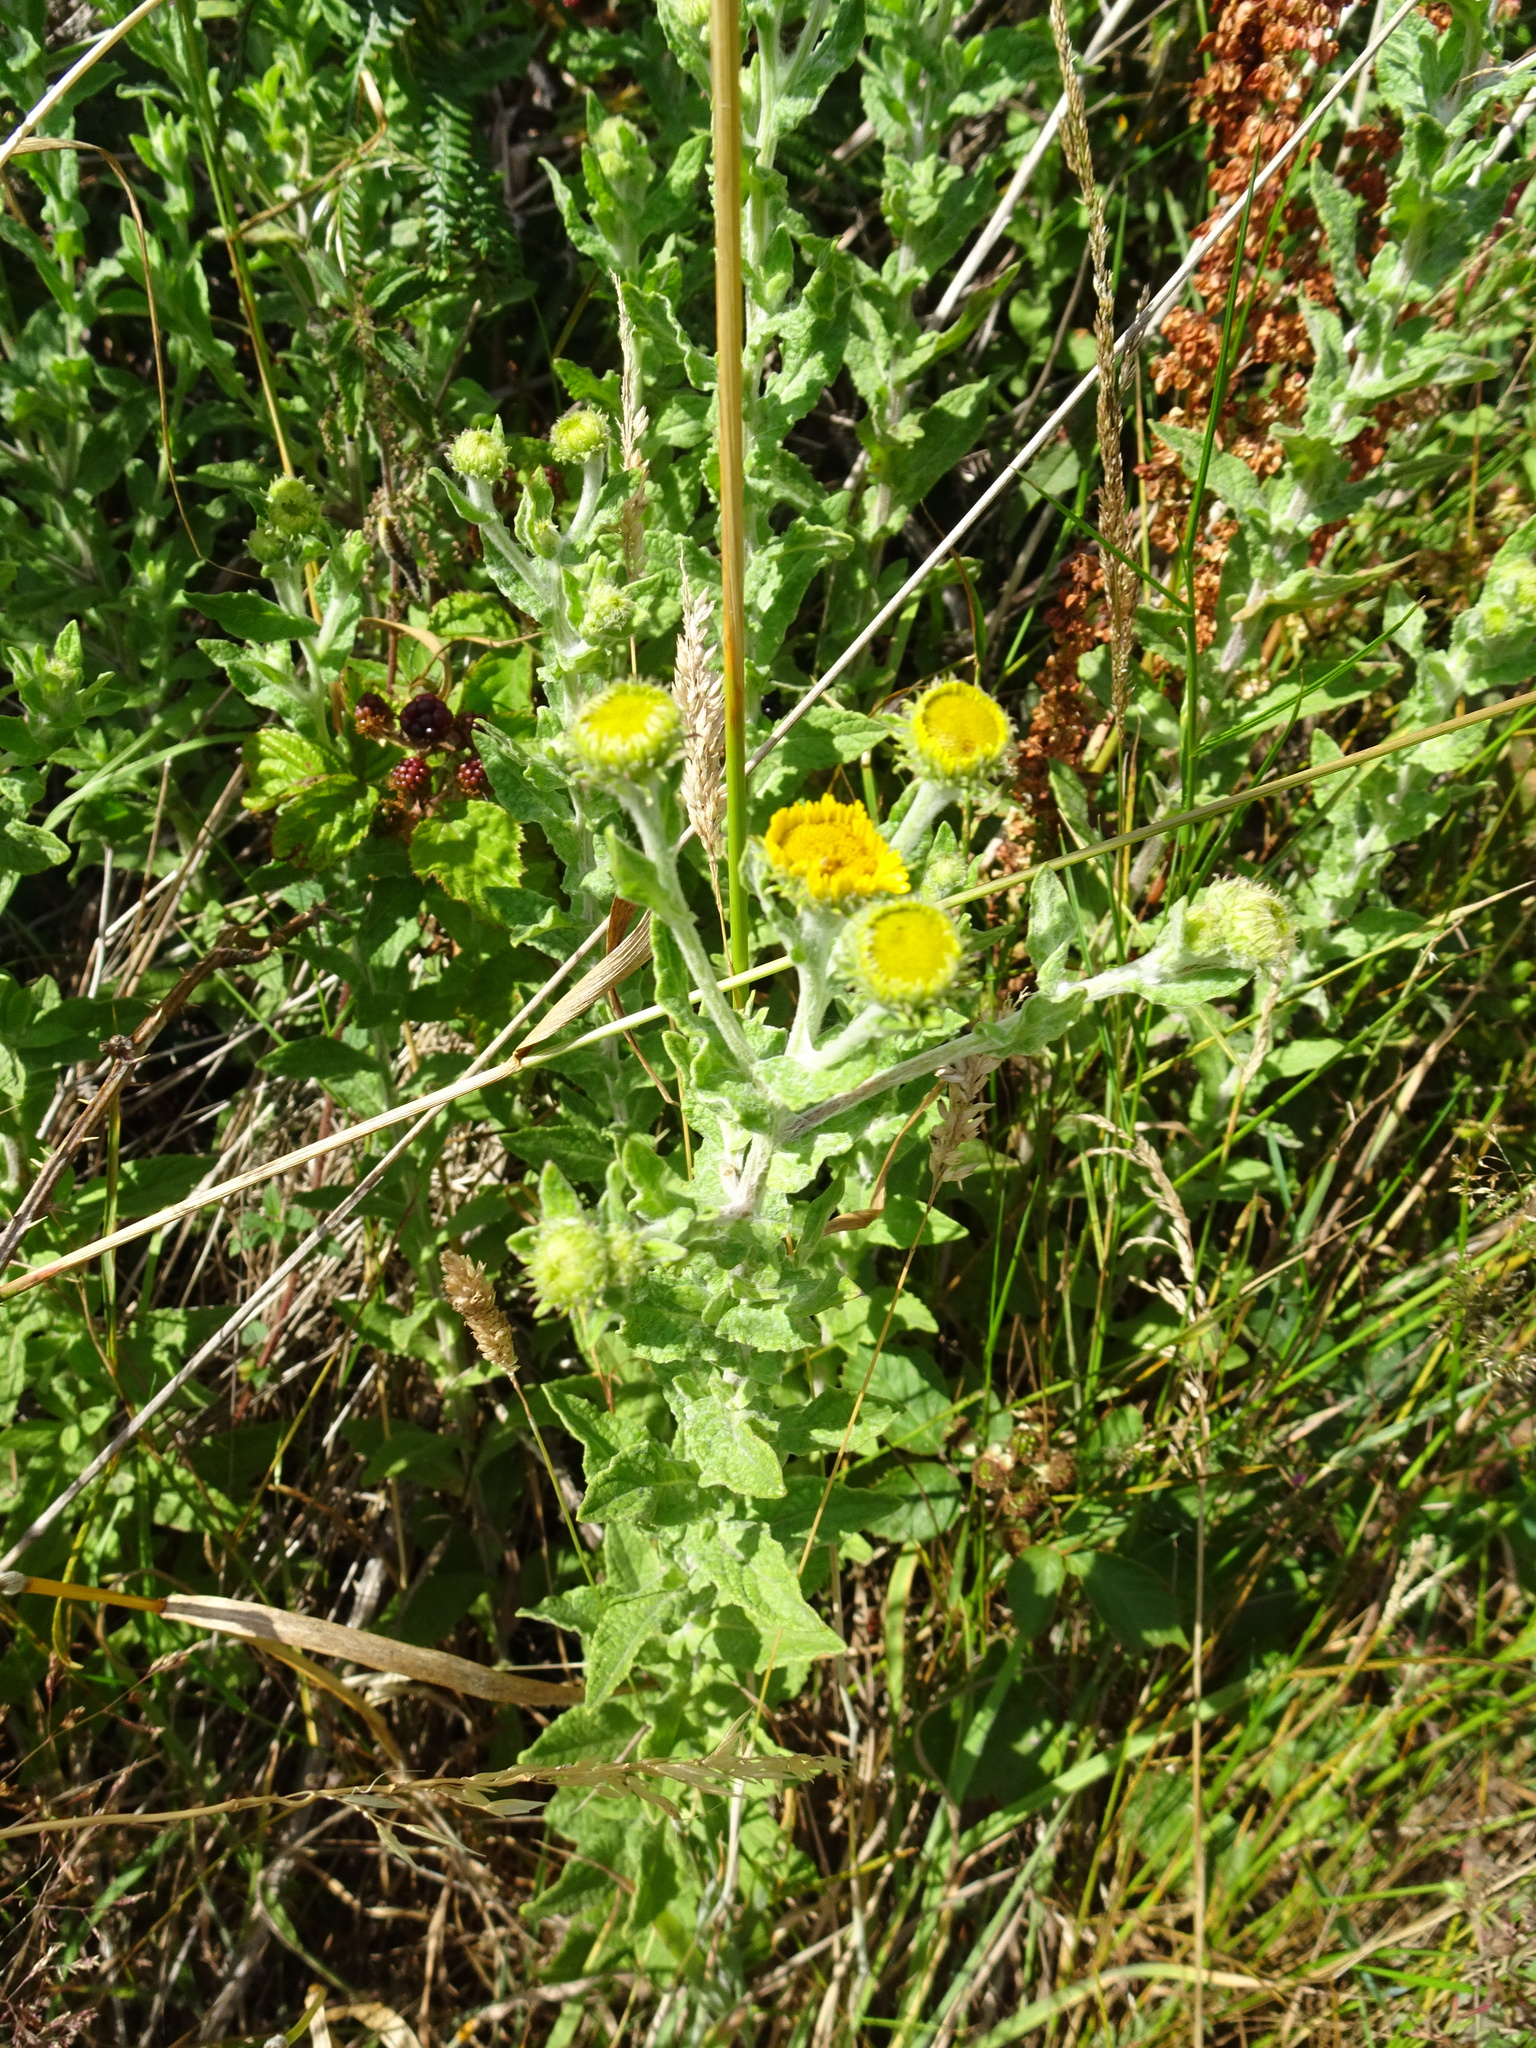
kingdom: Plantae
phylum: Tracheophyta
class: Magnoliopsida
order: Asterales
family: Asteraceae
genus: Pulicaria
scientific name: Pulicaria dysenterica
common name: Common fleabane
